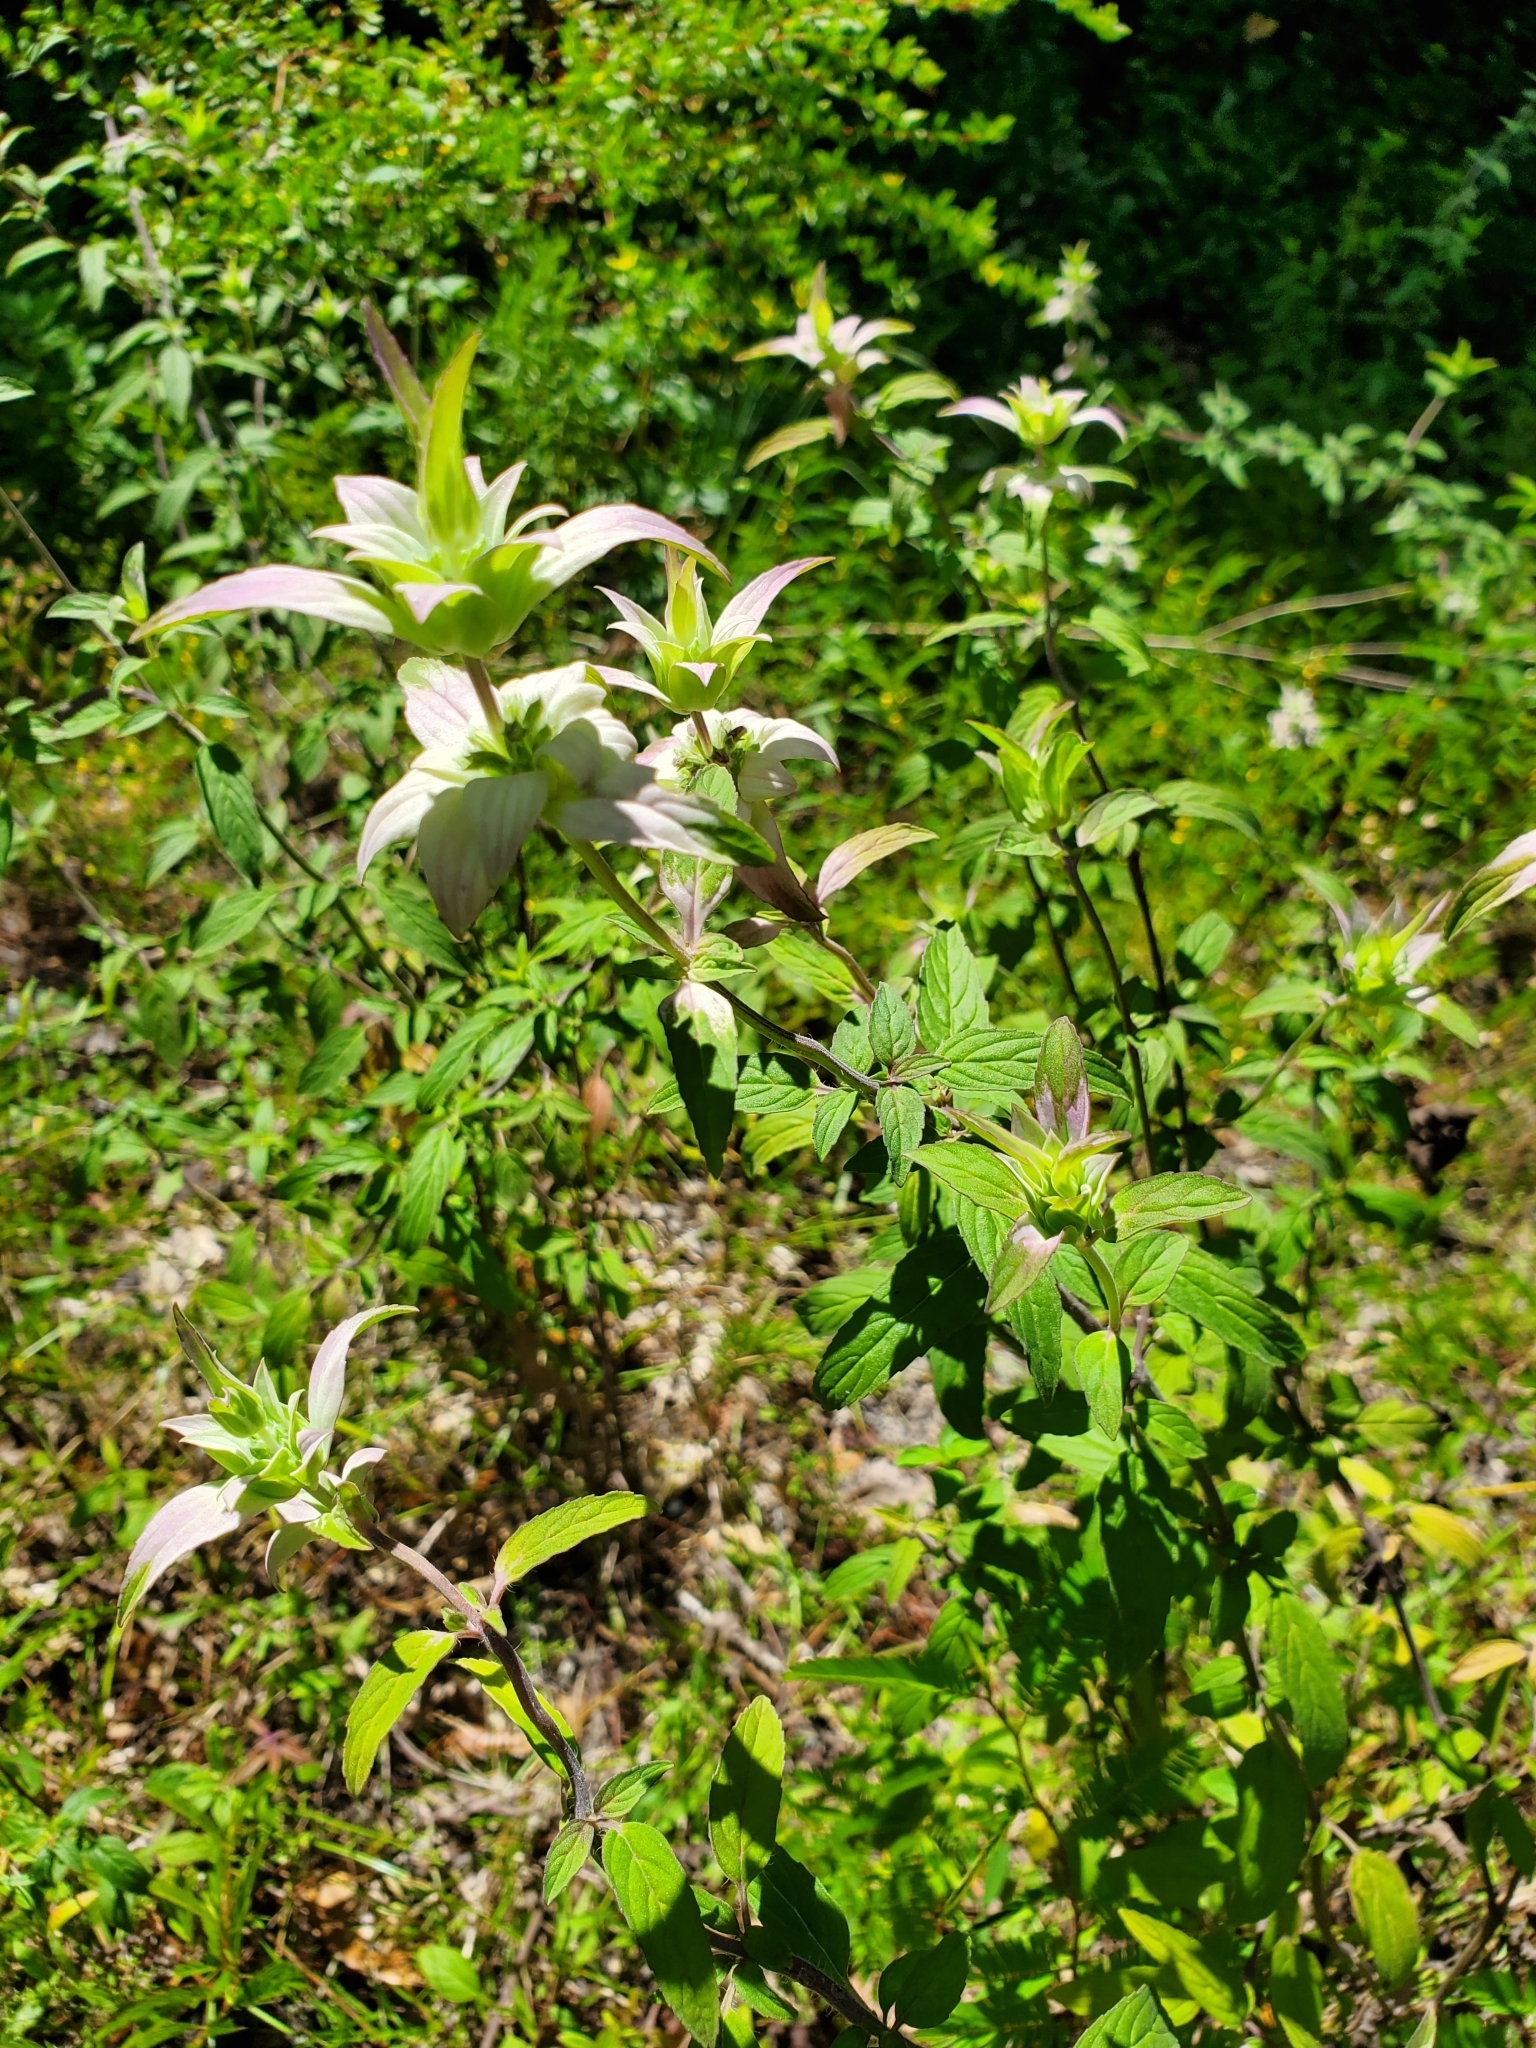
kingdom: Plantae
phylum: Tracheophyta
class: Magnoliopsida
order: Lamiales
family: Lamiaceae
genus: Monarda
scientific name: Monarda punctata
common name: Dotted monarda
